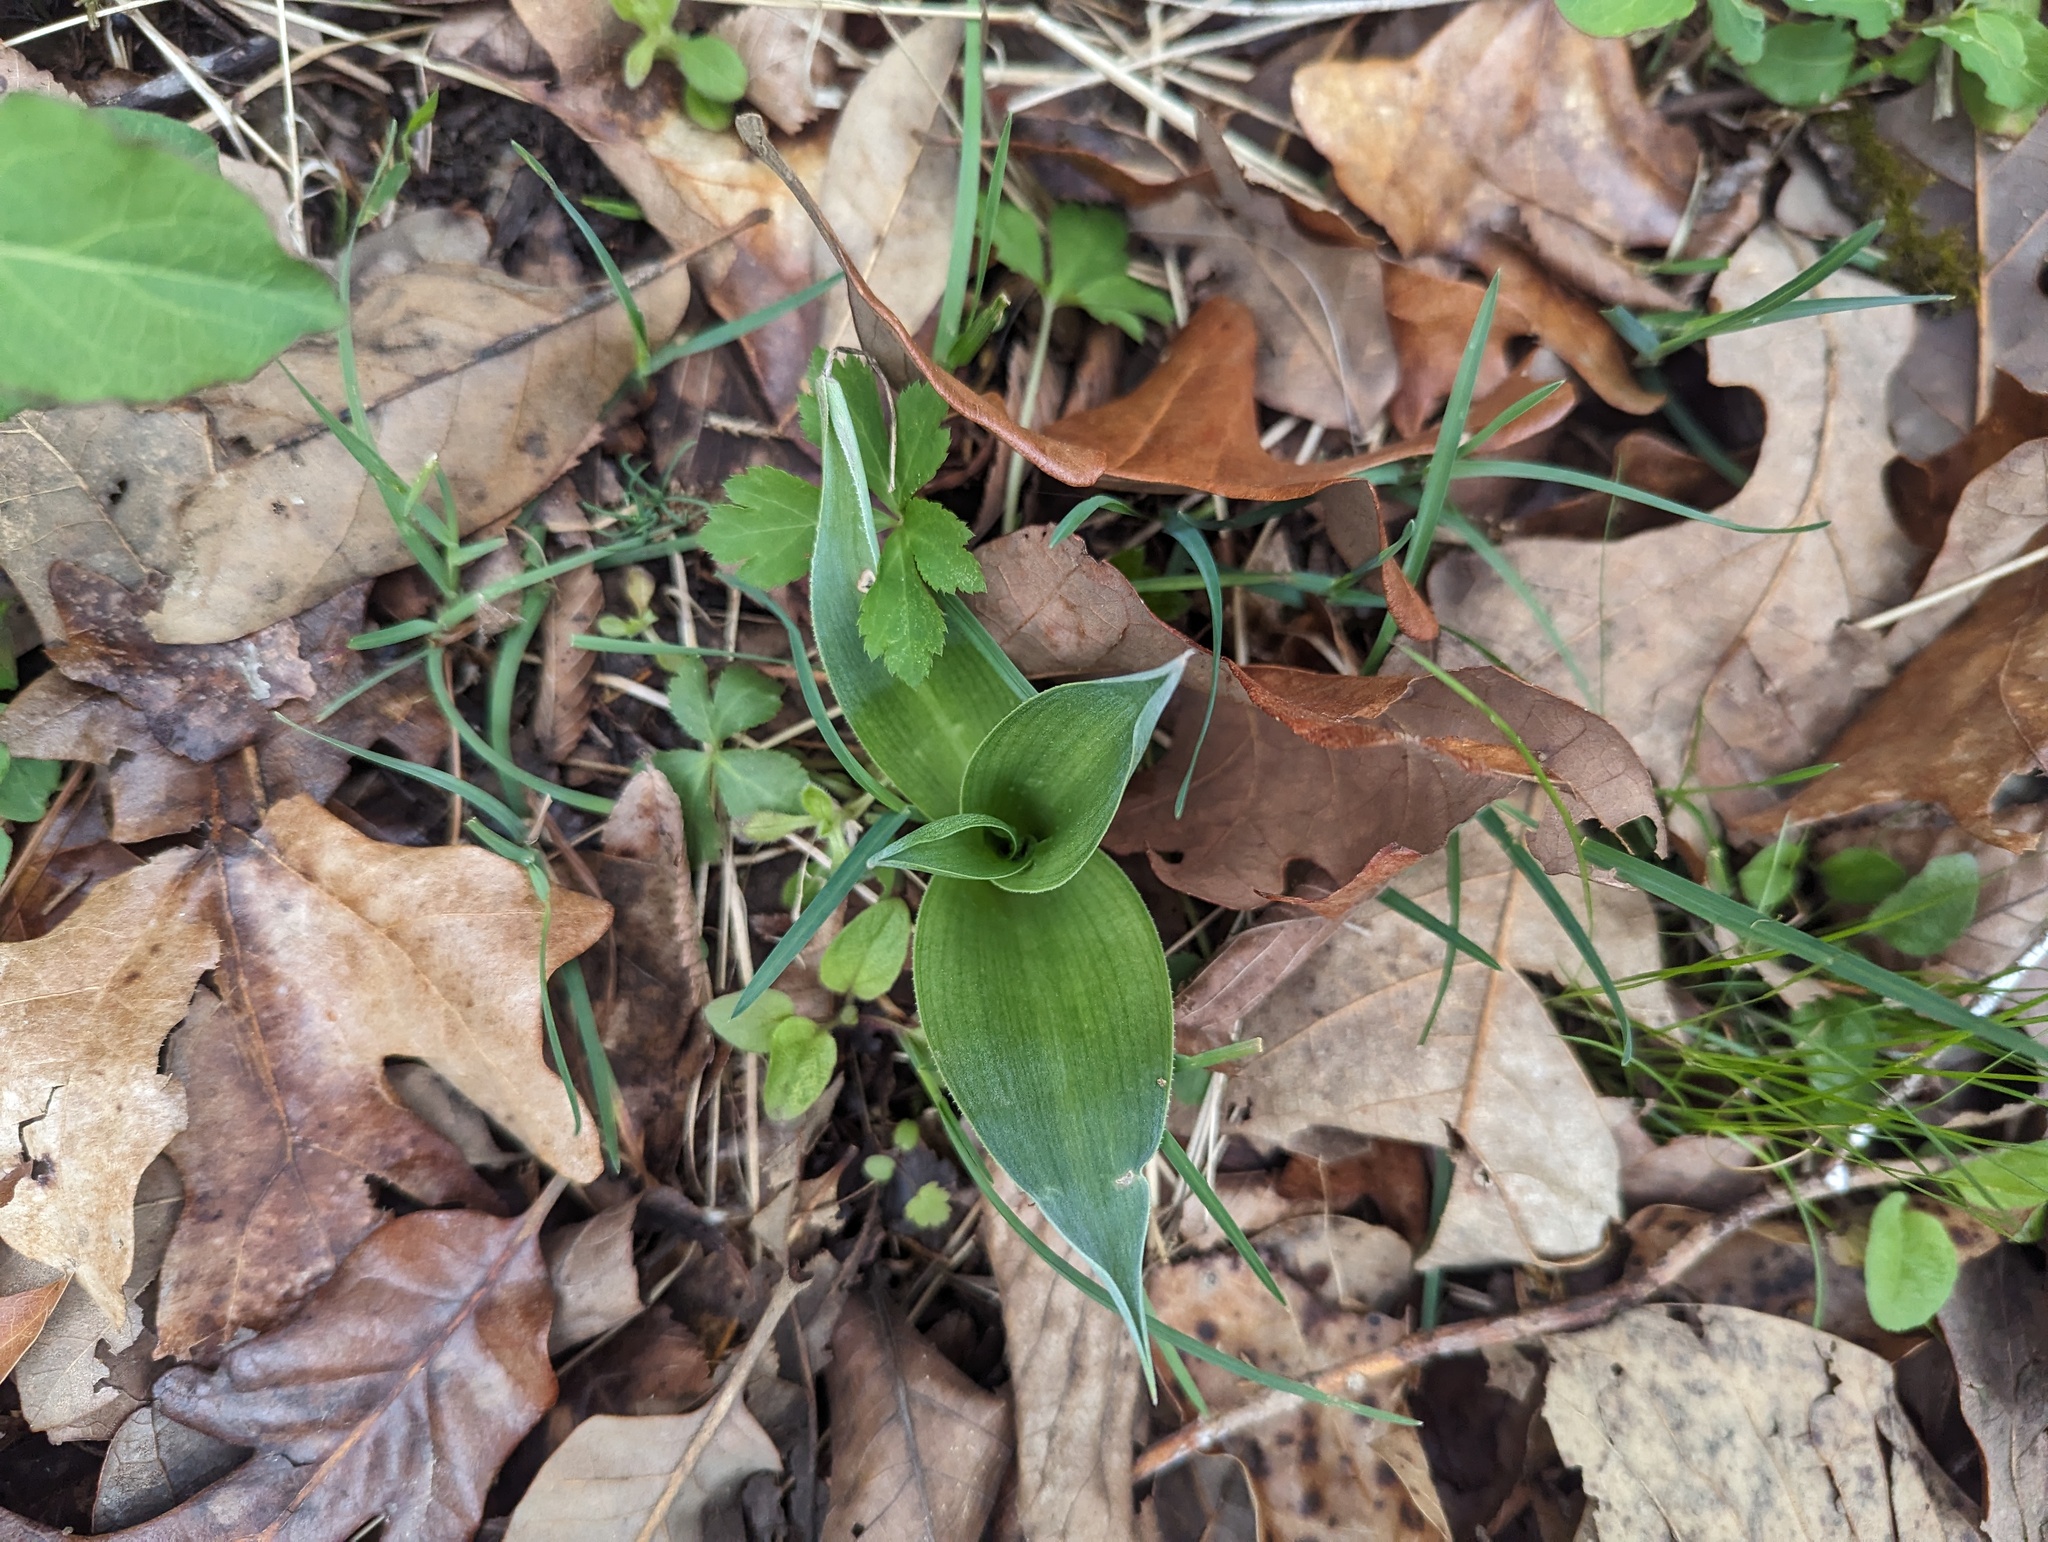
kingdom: Plantae
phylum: Tracheophyta
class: Liliopsida
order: Asparagales
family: Asparagaceae
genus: Agave
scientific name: Agave virginica
